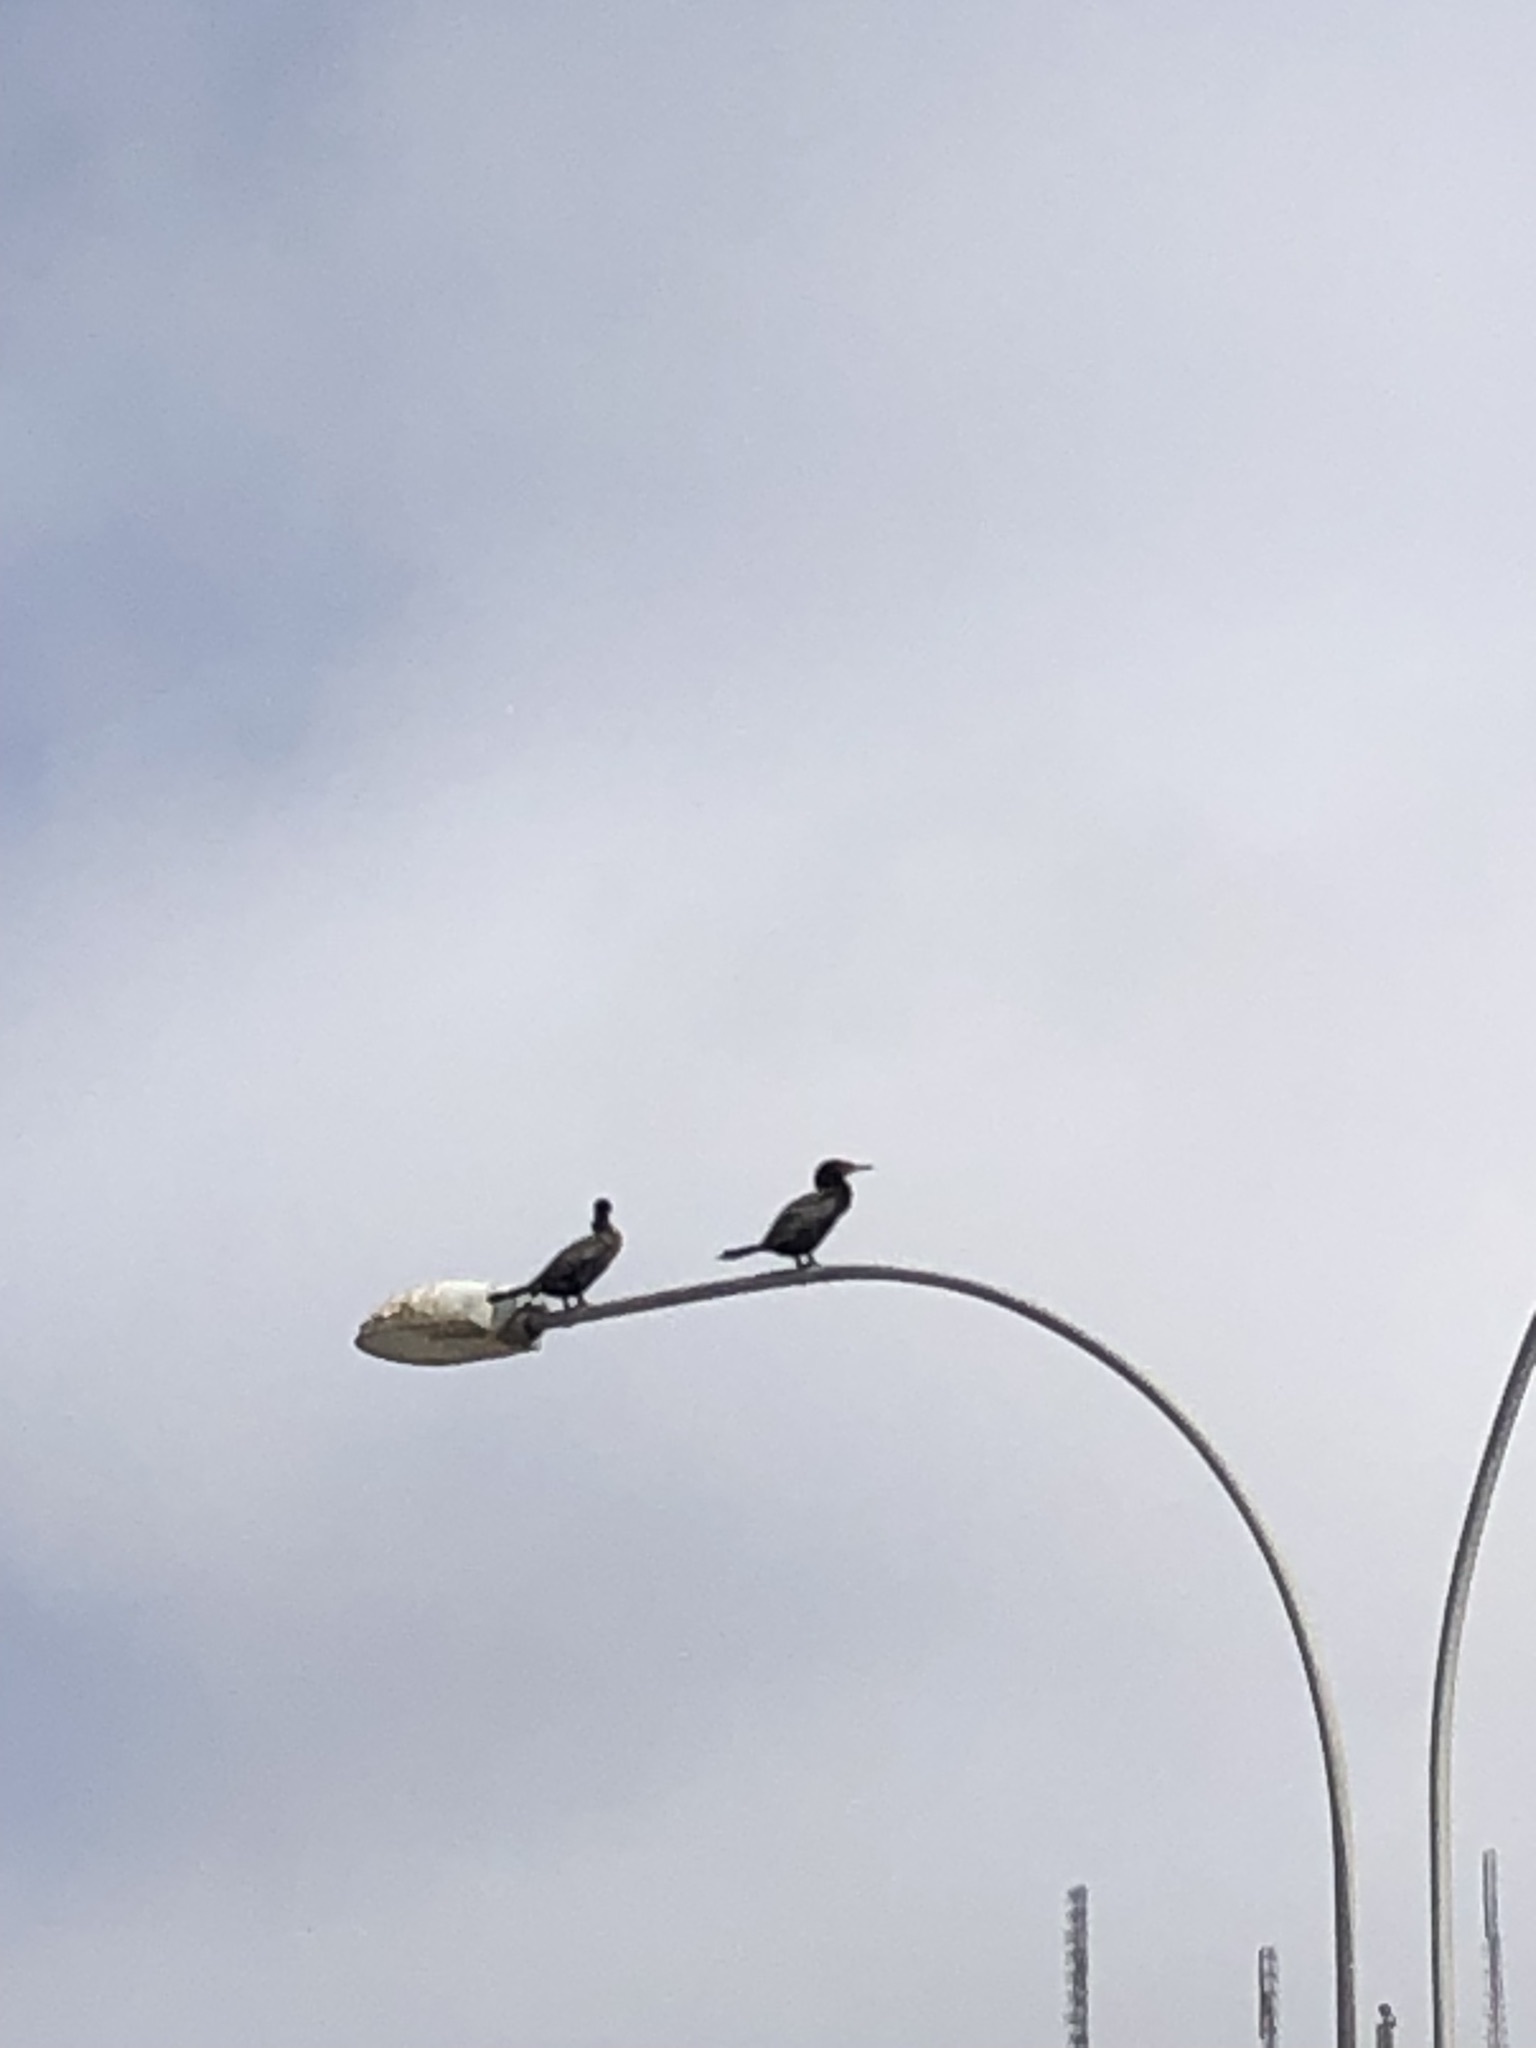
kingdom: Animalia
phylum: Chordata
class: Aves
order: Suliformes
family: Phalacrocoracidae
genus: Phalacrocorax
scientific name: Phalacrocorax brasilianus
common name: Neotropic cormorant
